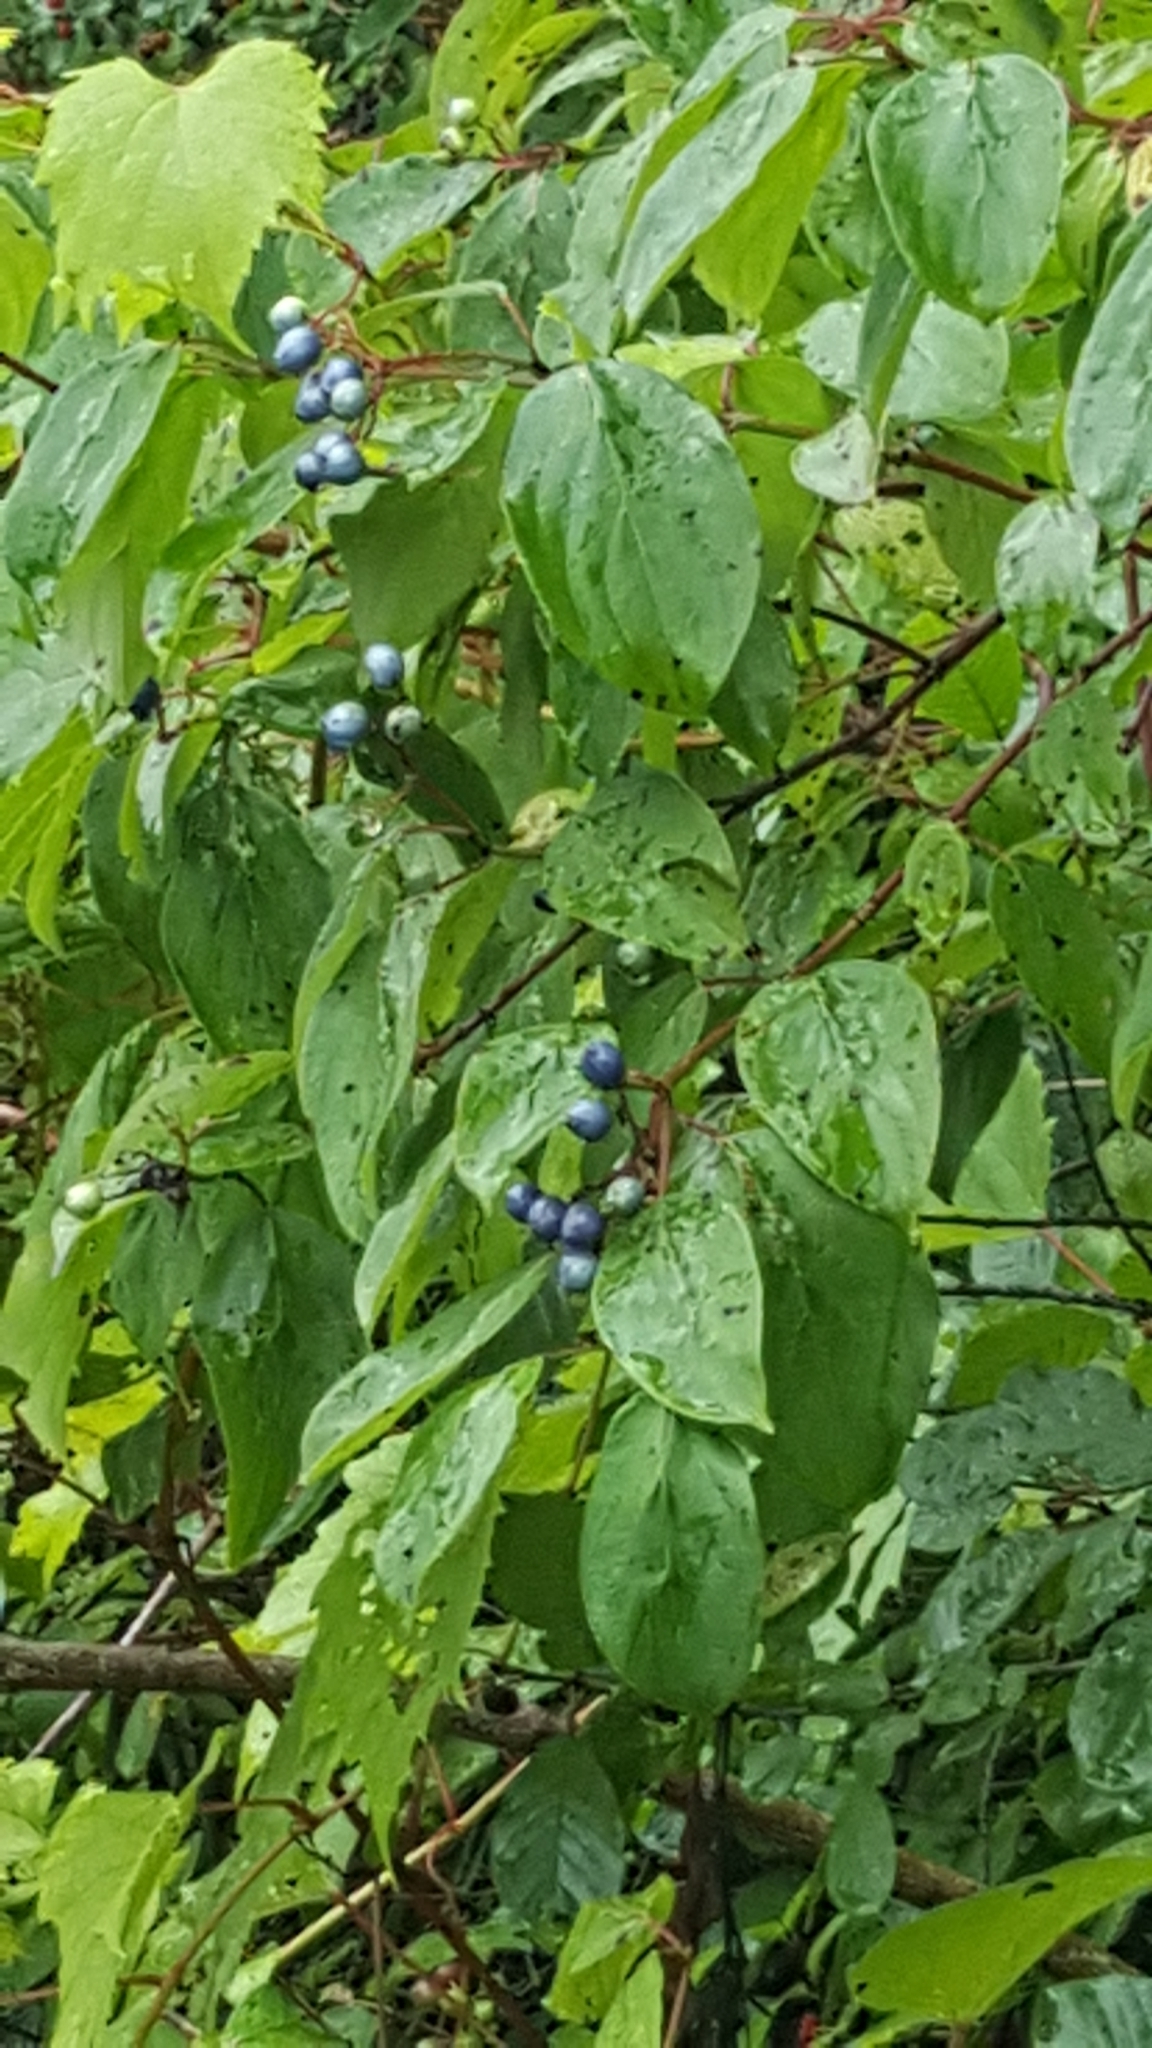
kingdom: Plantae
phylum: Tracheophyta
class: Magnoliopsida
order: Cornales
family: Cornaceae
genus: Cornus
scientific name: Cornus amomum
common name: Silky dogwood
